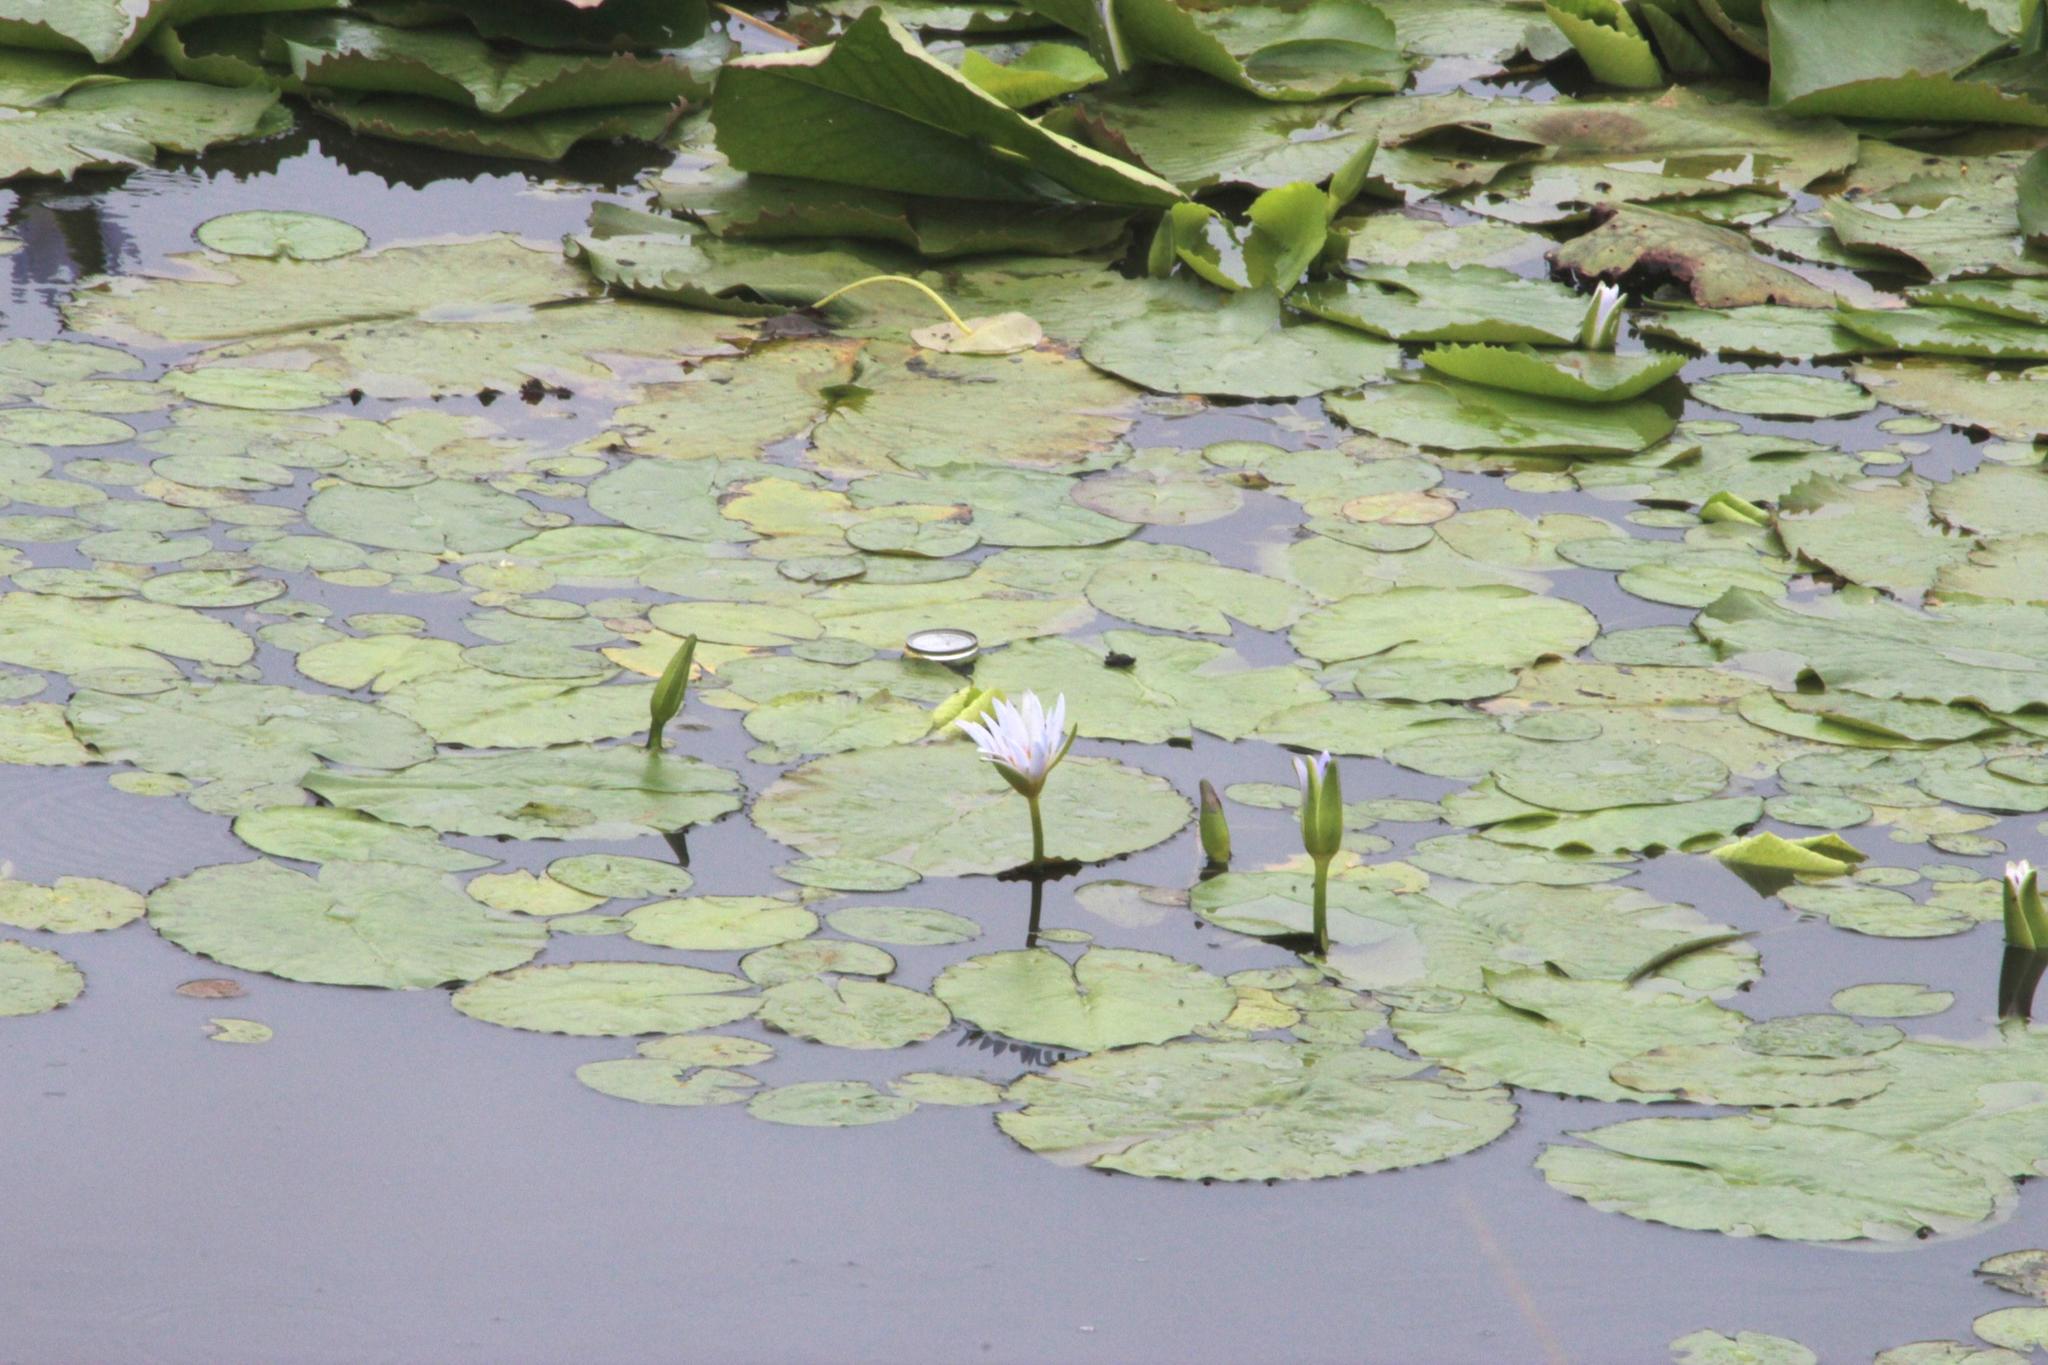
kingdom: Plantae
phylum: Tracheophyta
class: Magnoliopsida
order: Nymphaeales
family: Nymphaeaceae
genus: Nymphaea
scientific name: Nymphaea nouchali
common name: Blue lotus
